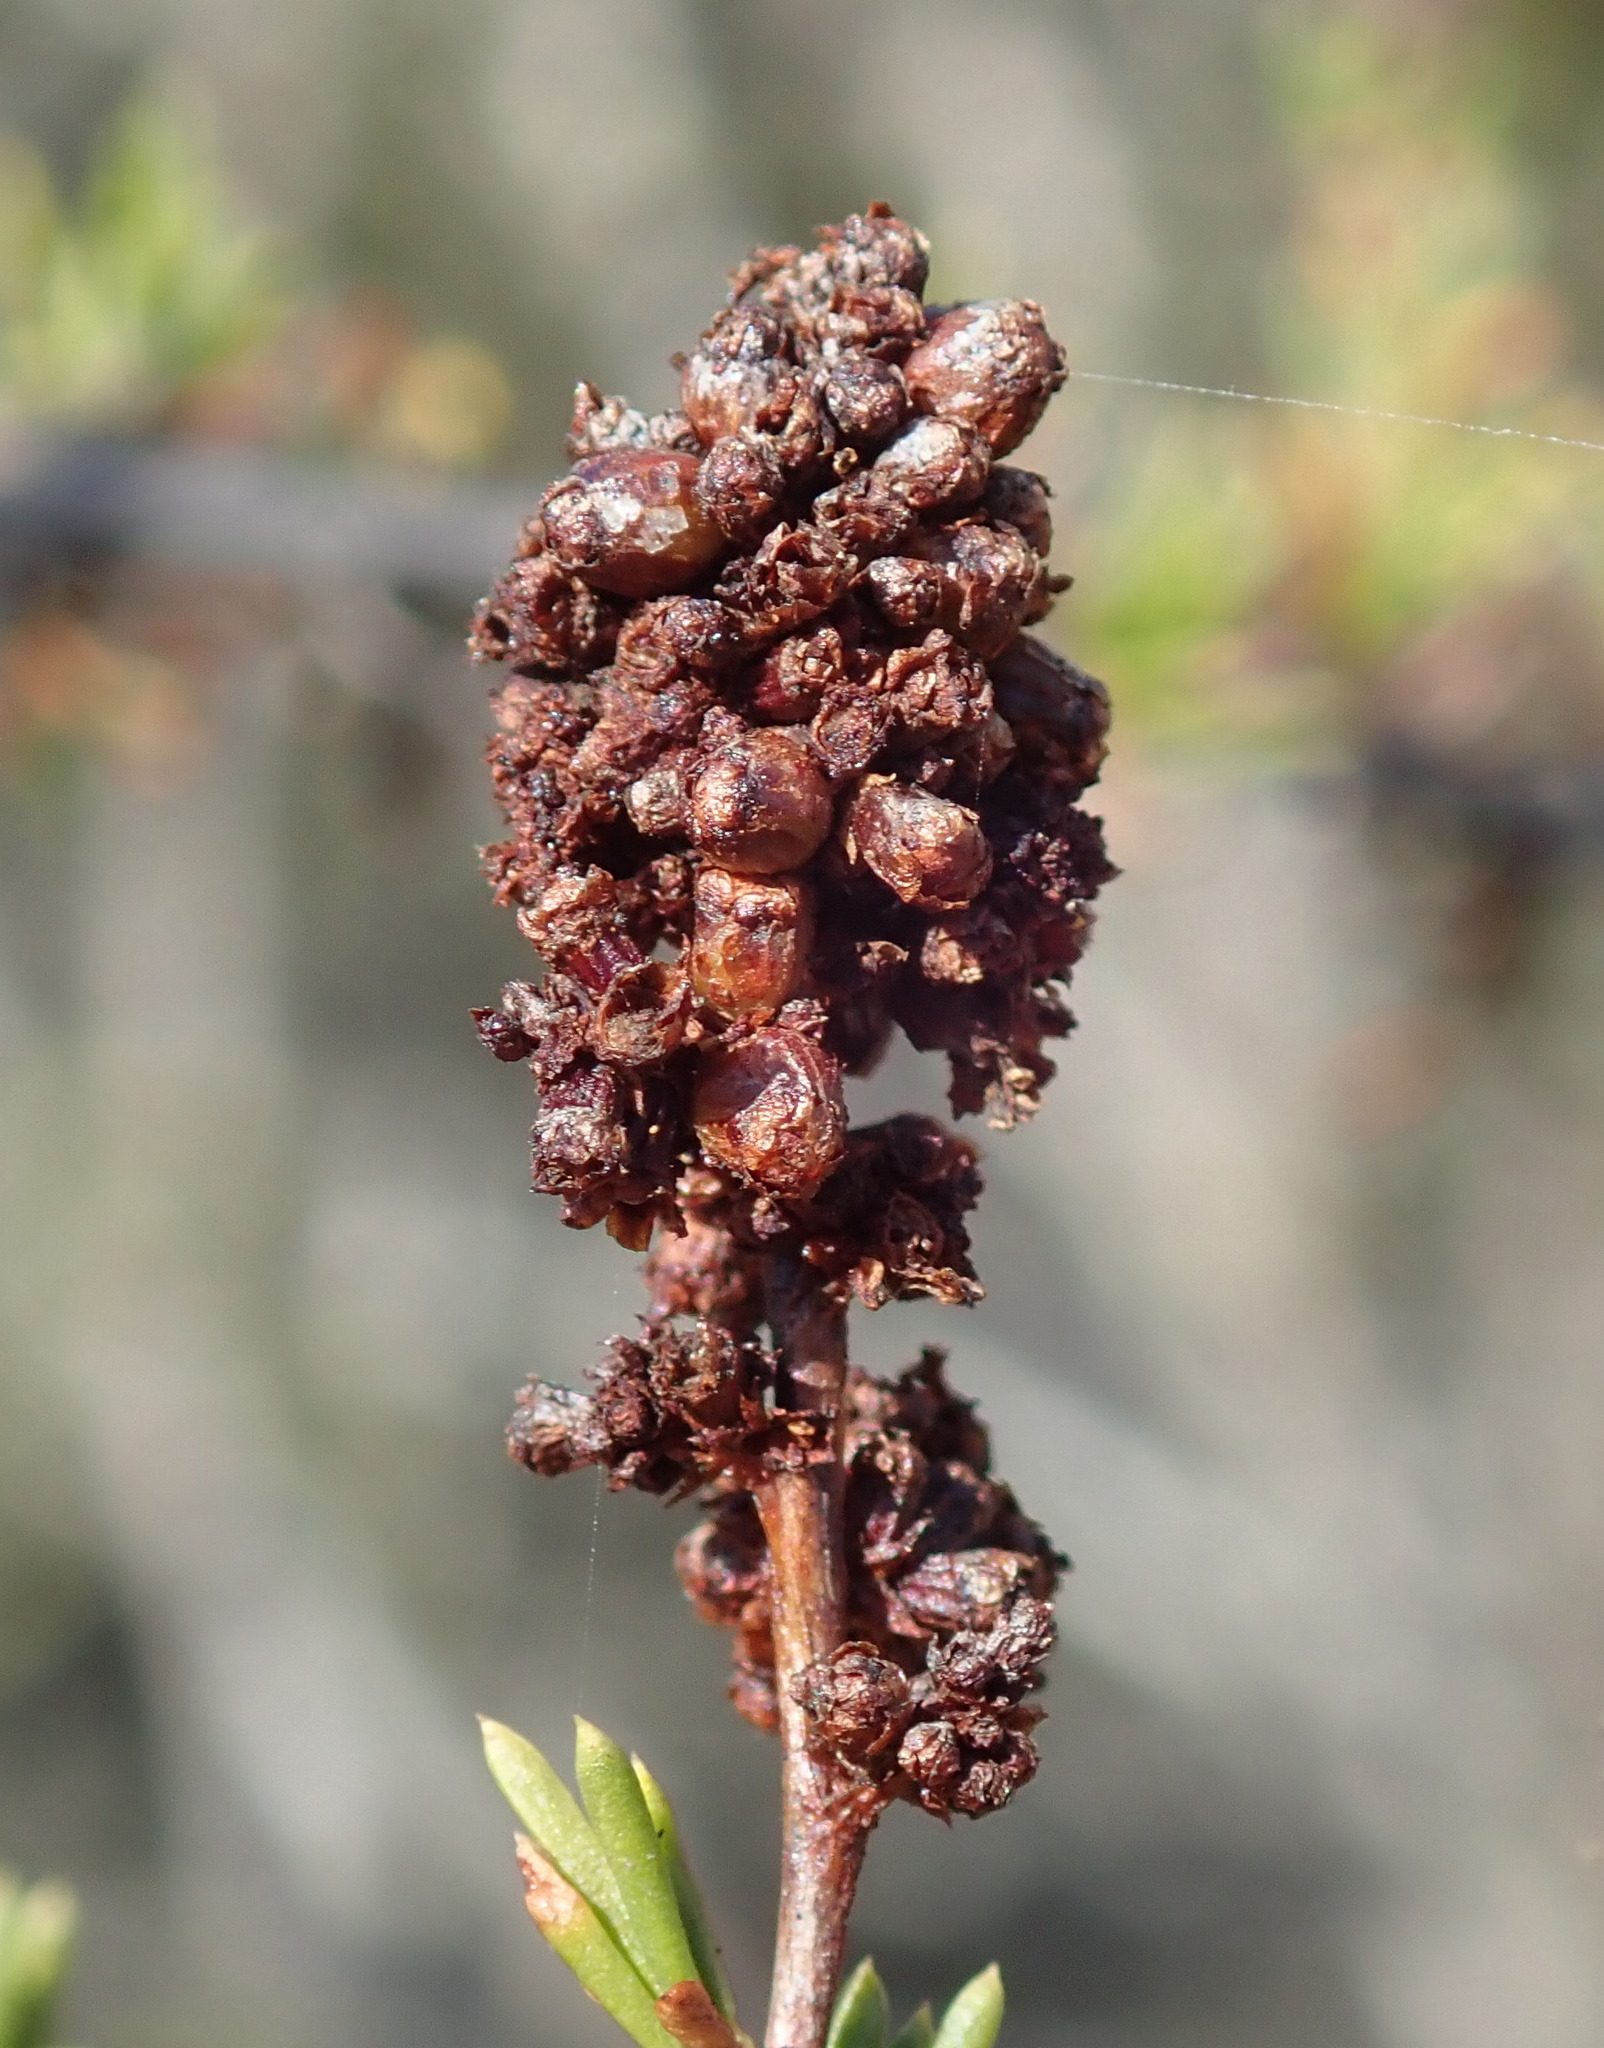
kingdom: Animalia
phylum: Arthropoda
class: Insecta
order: Diptera
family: Cecidomyiidae
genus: Asphondylia
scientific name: Asphondylia adenostoma
